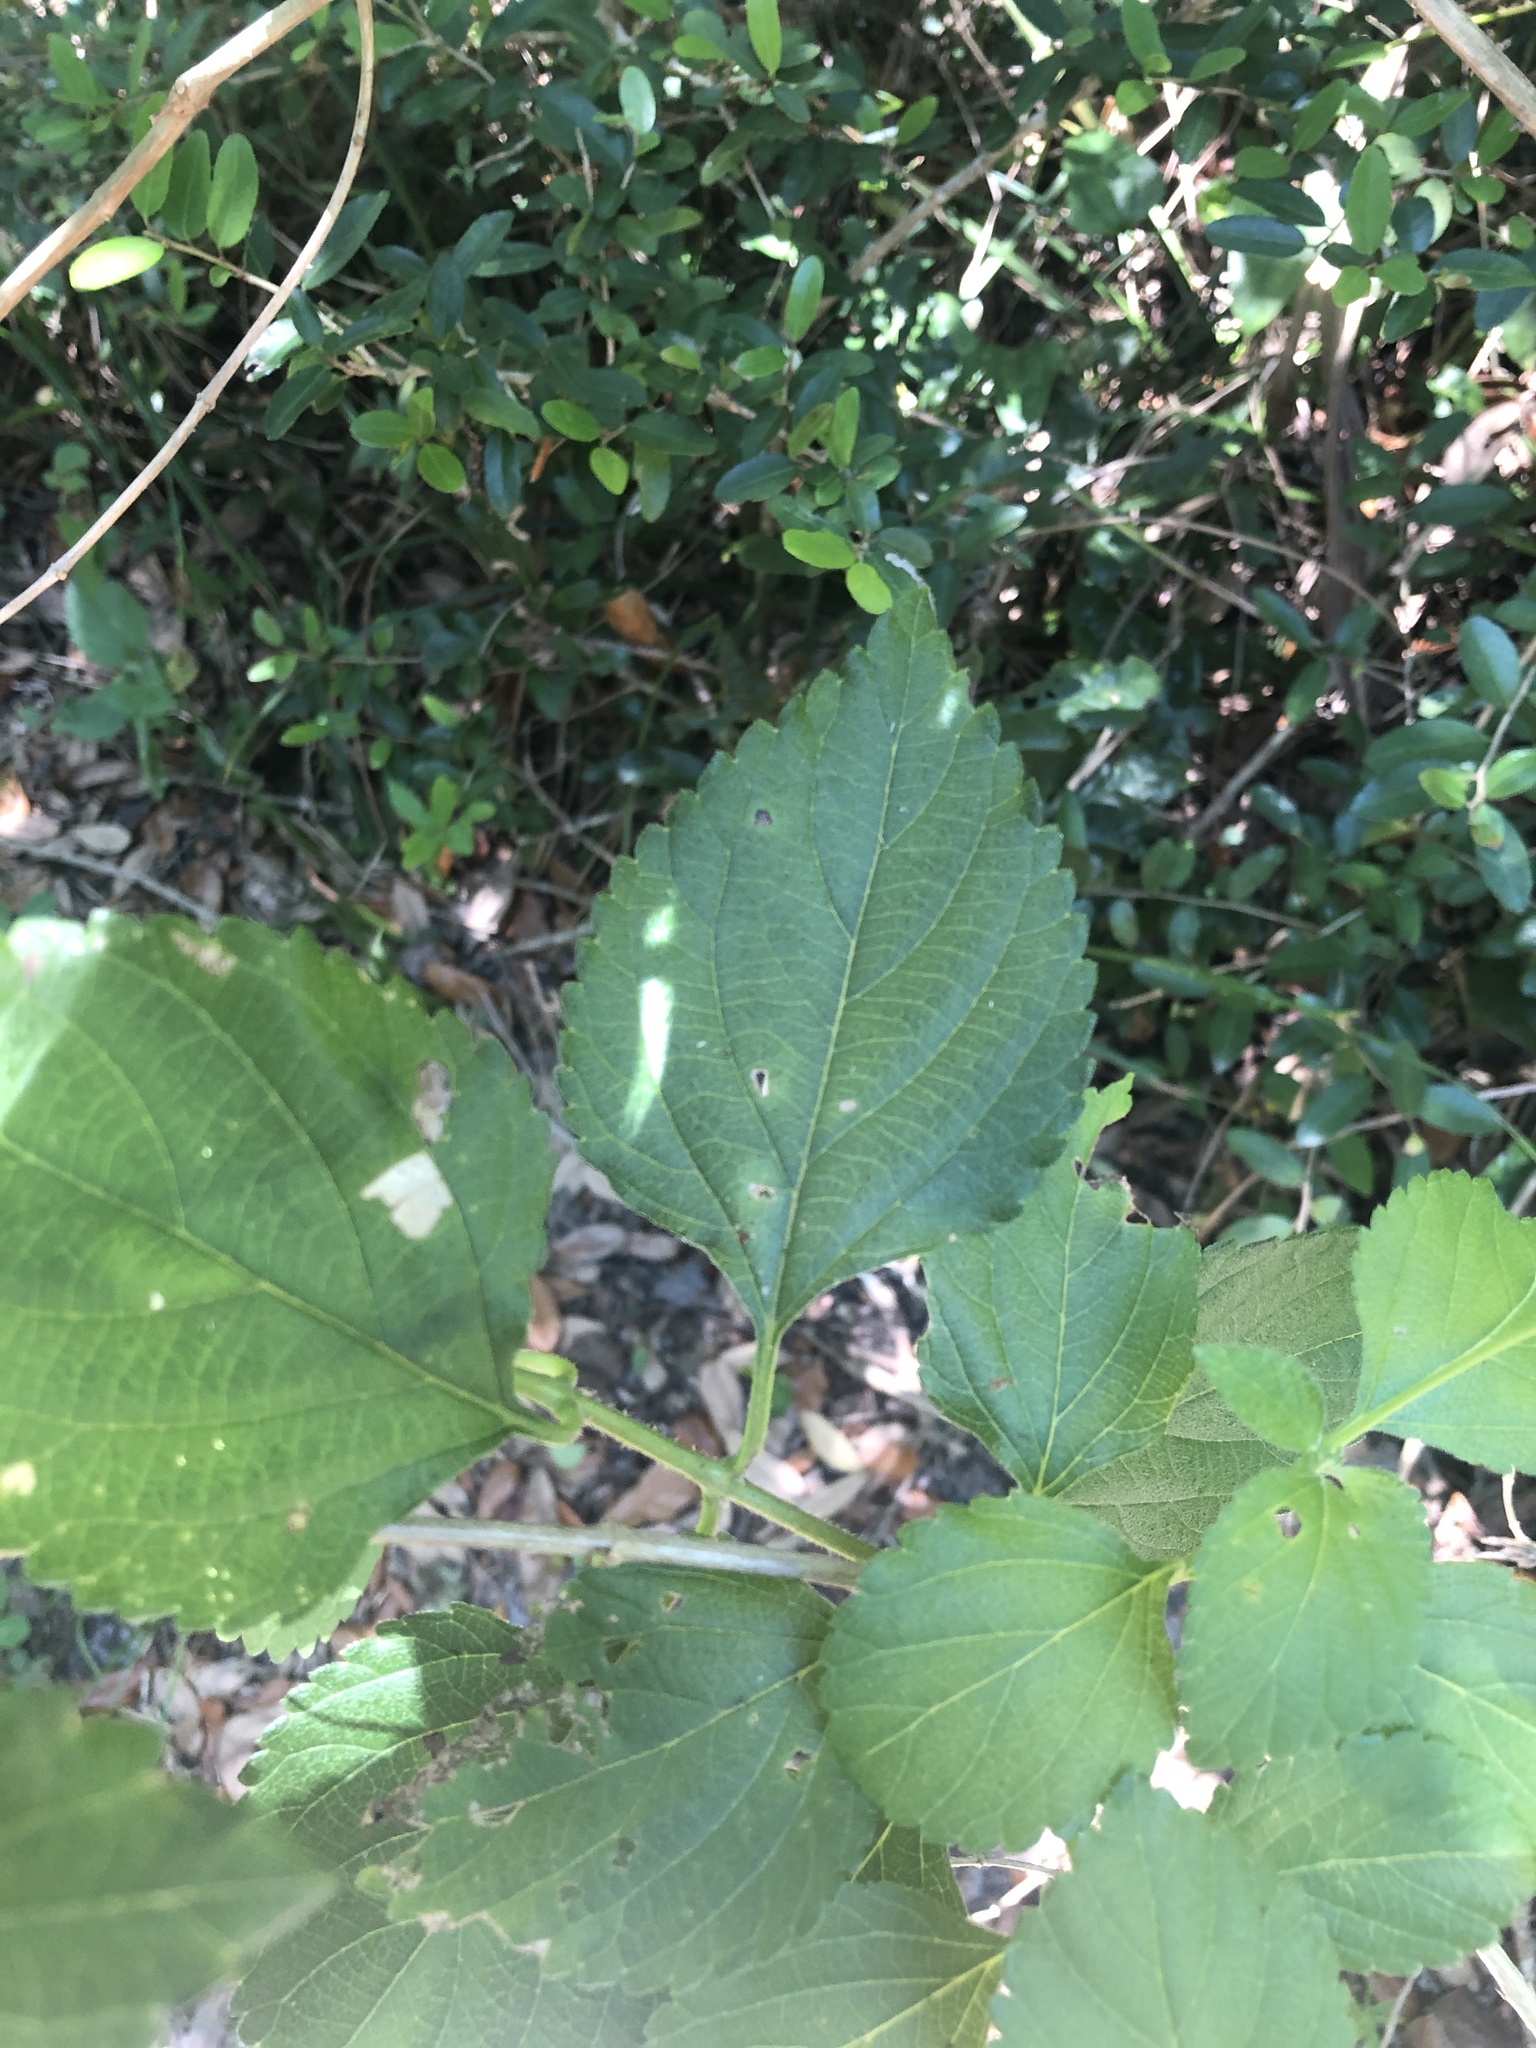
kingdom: Plantae
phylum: Tracheophyta
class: Magnoliopsida
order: Lamiales
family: Verbenaceae
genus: Lantana
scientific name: Lantana camara
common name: Lantana
